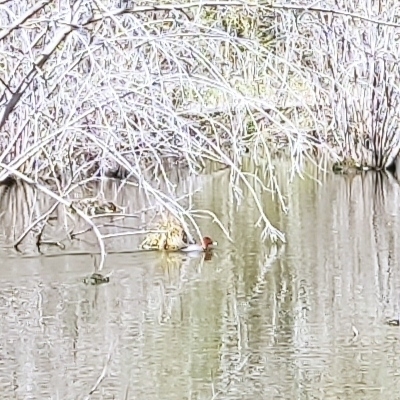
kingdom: Animalia
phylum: Chordata
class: Aves
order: Anseriformes
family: Anatidae
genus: Aythya
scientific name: Aythya ferina
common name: Common pochard
